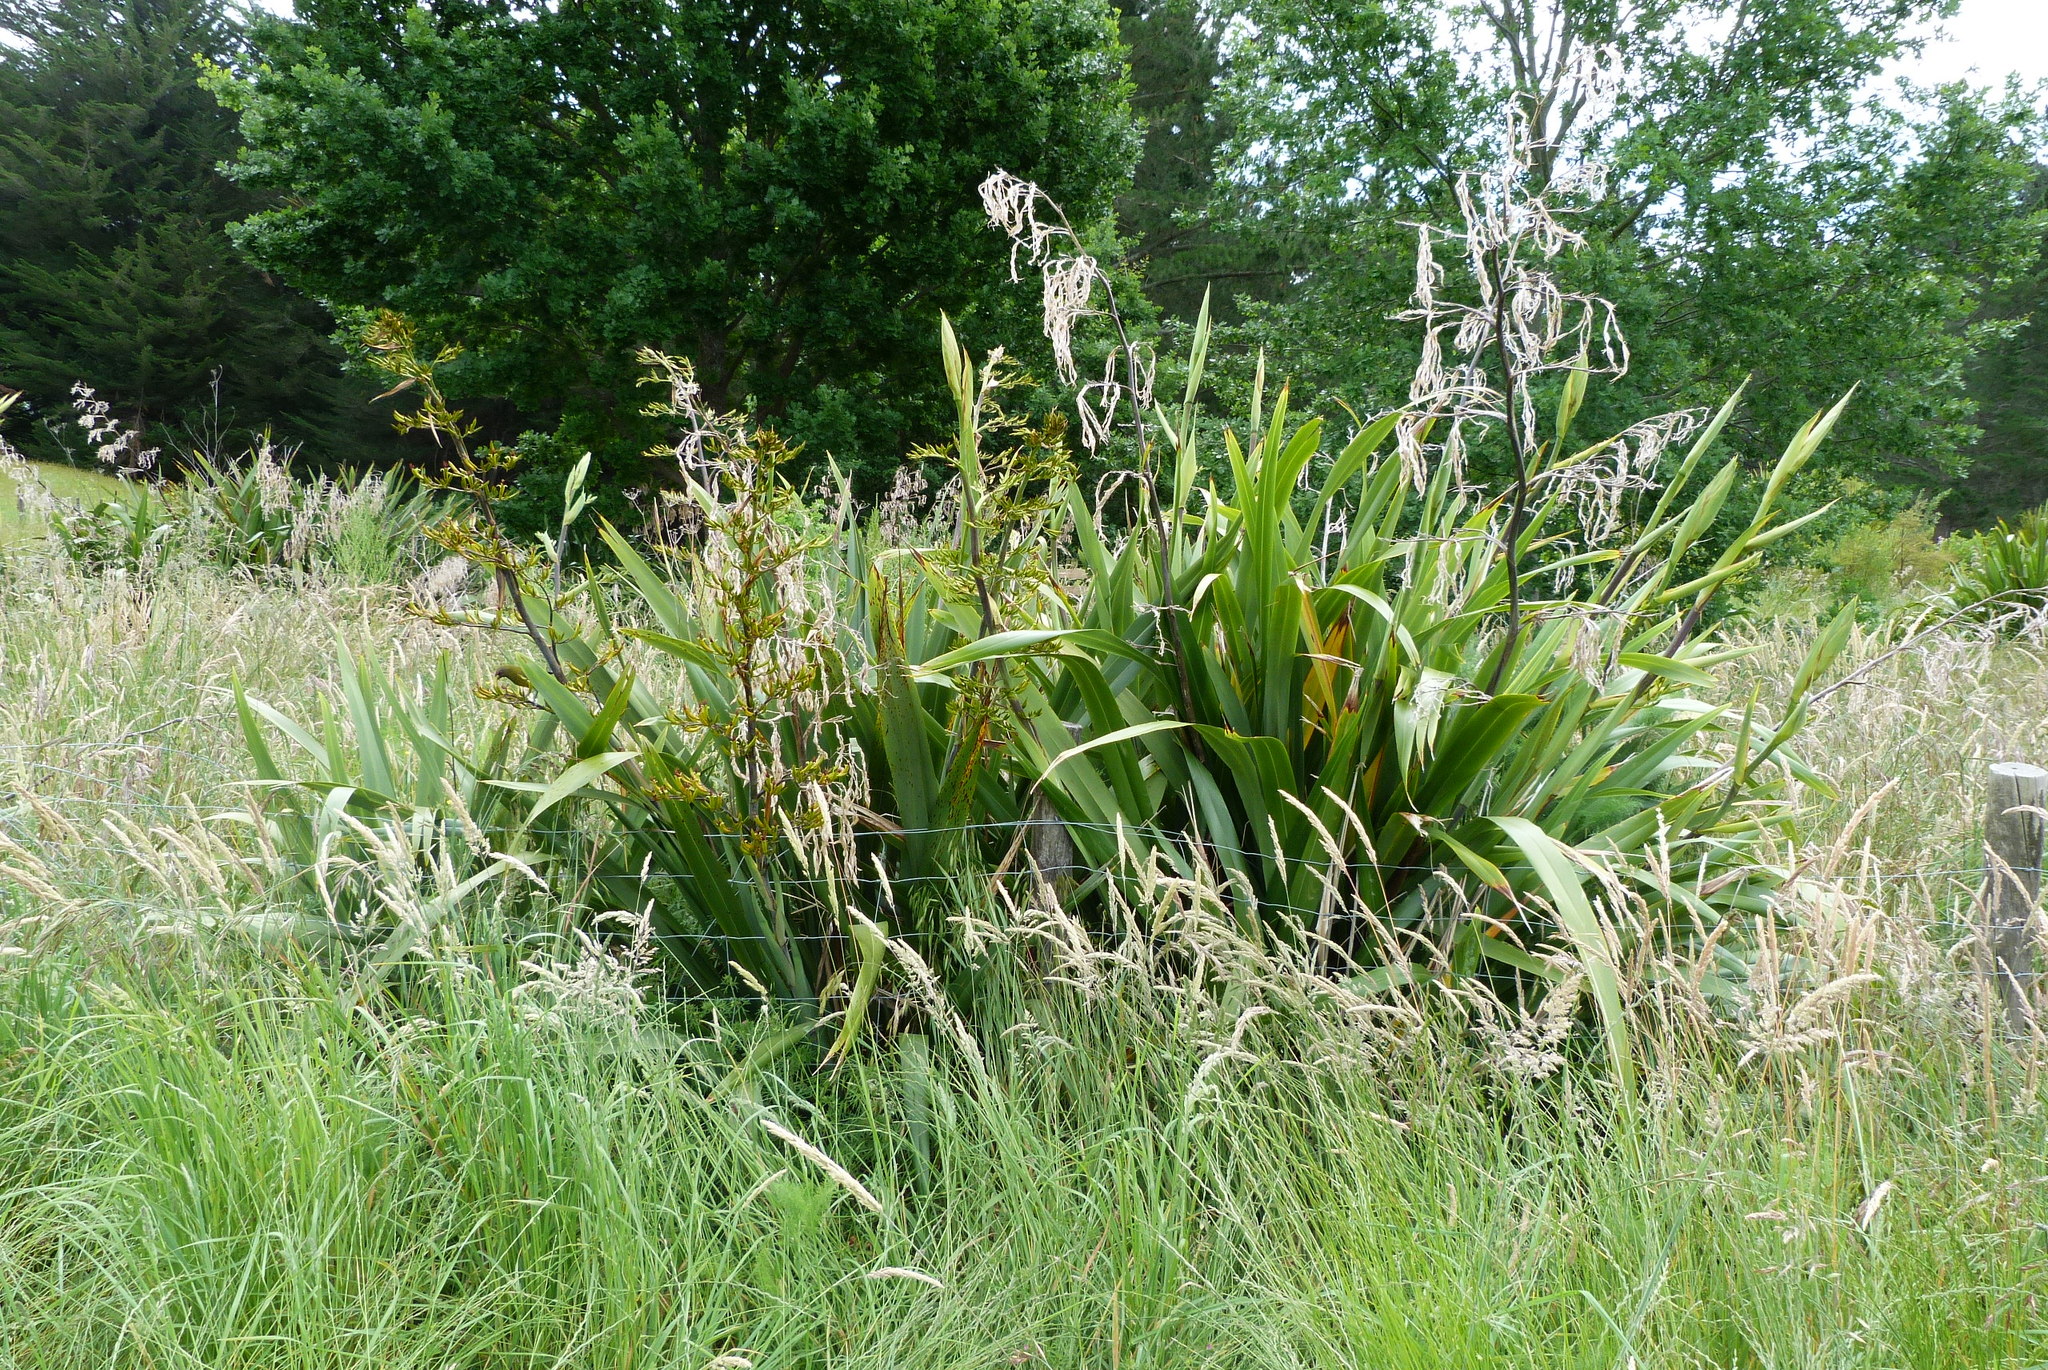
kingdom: Animalia
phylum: Chordata
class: Aves
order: Passeriformes
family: Meliphagidae
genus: Anthornis
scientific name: Anthornis melanura
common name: New zealand bellbird
